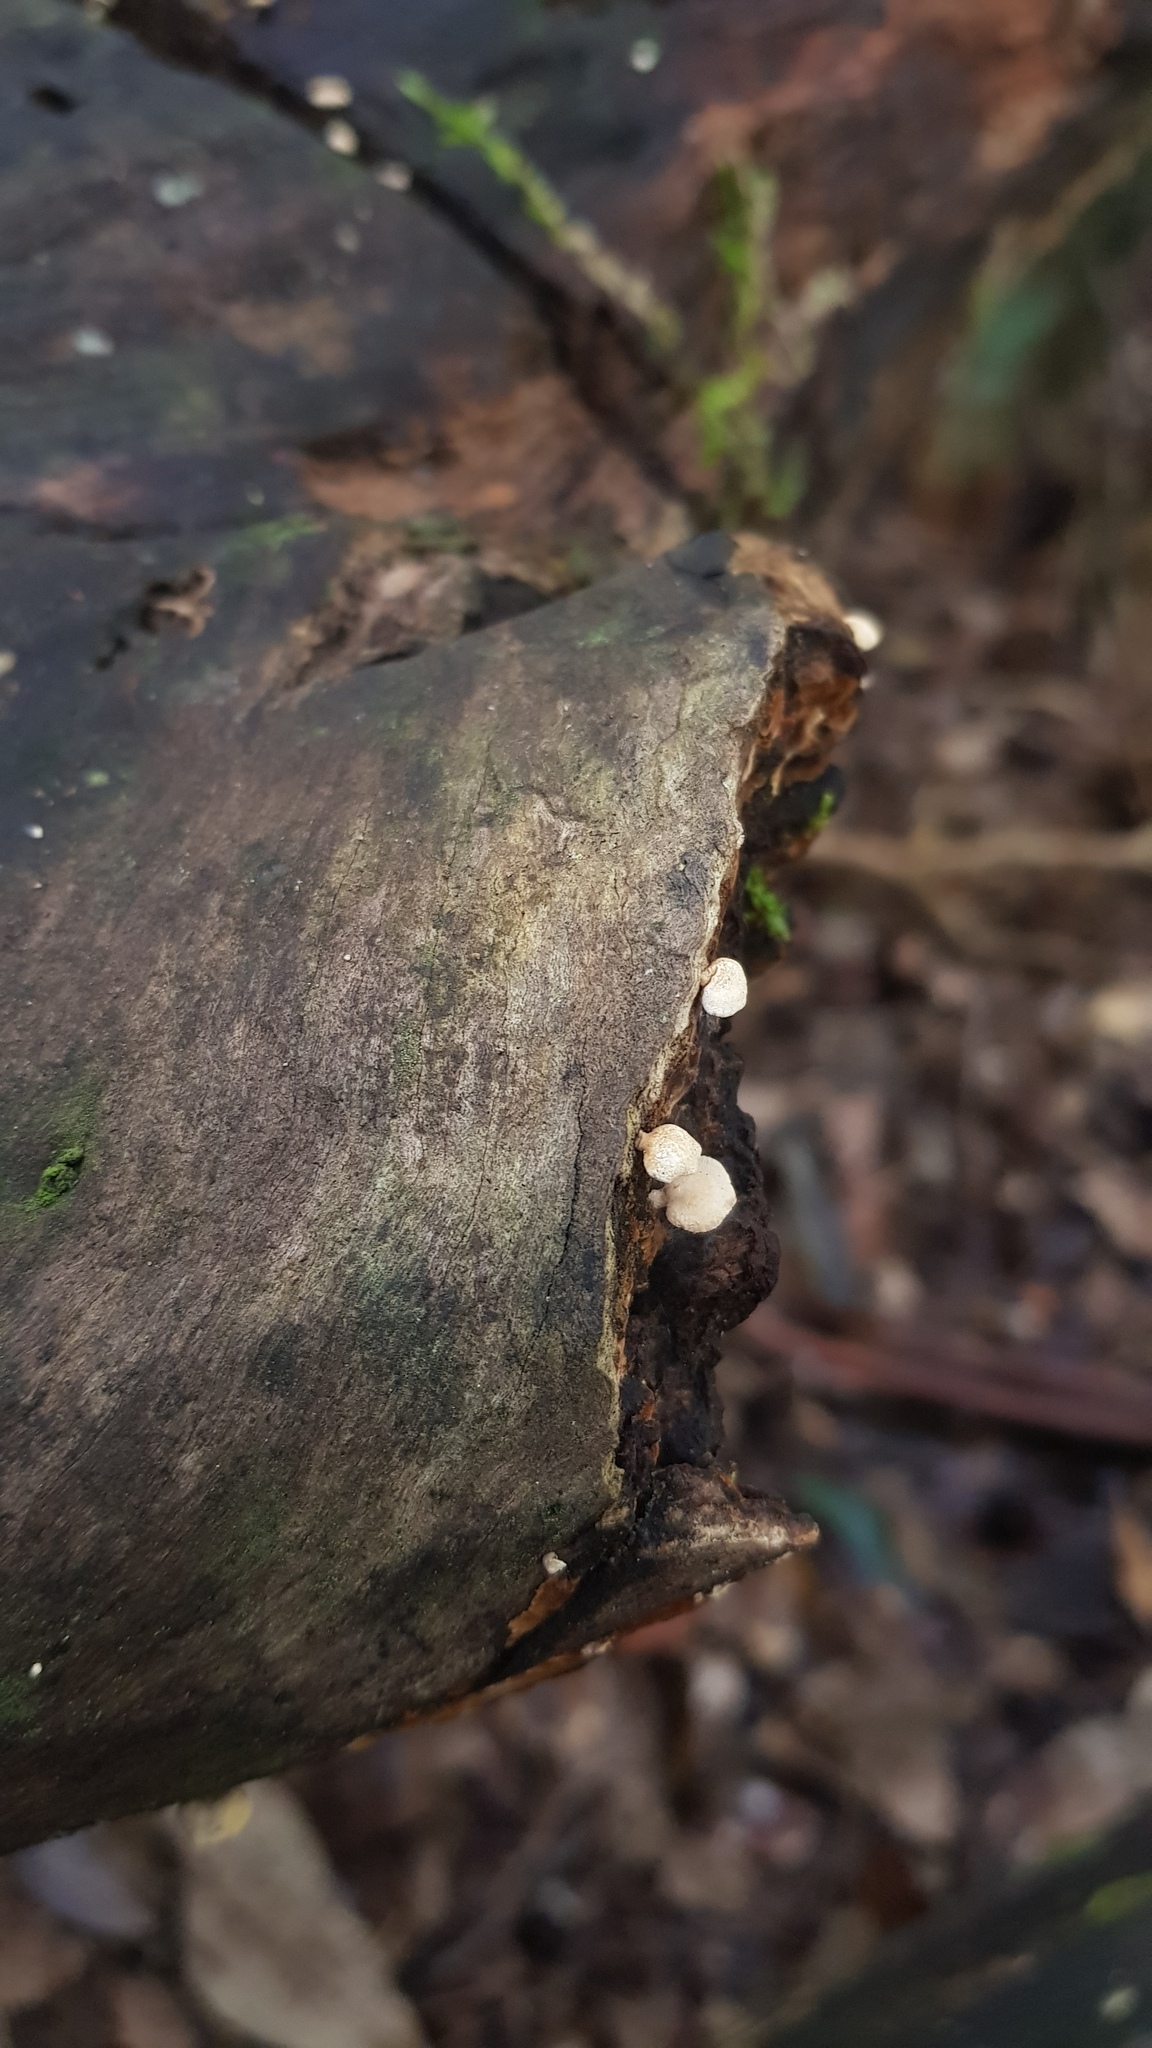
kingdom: Fungi
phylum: Basidiomycota
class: Agaricomycetes
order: Agaricales
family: Mycenaceae
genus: Panellus
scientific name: Panellus luxfilamentus
